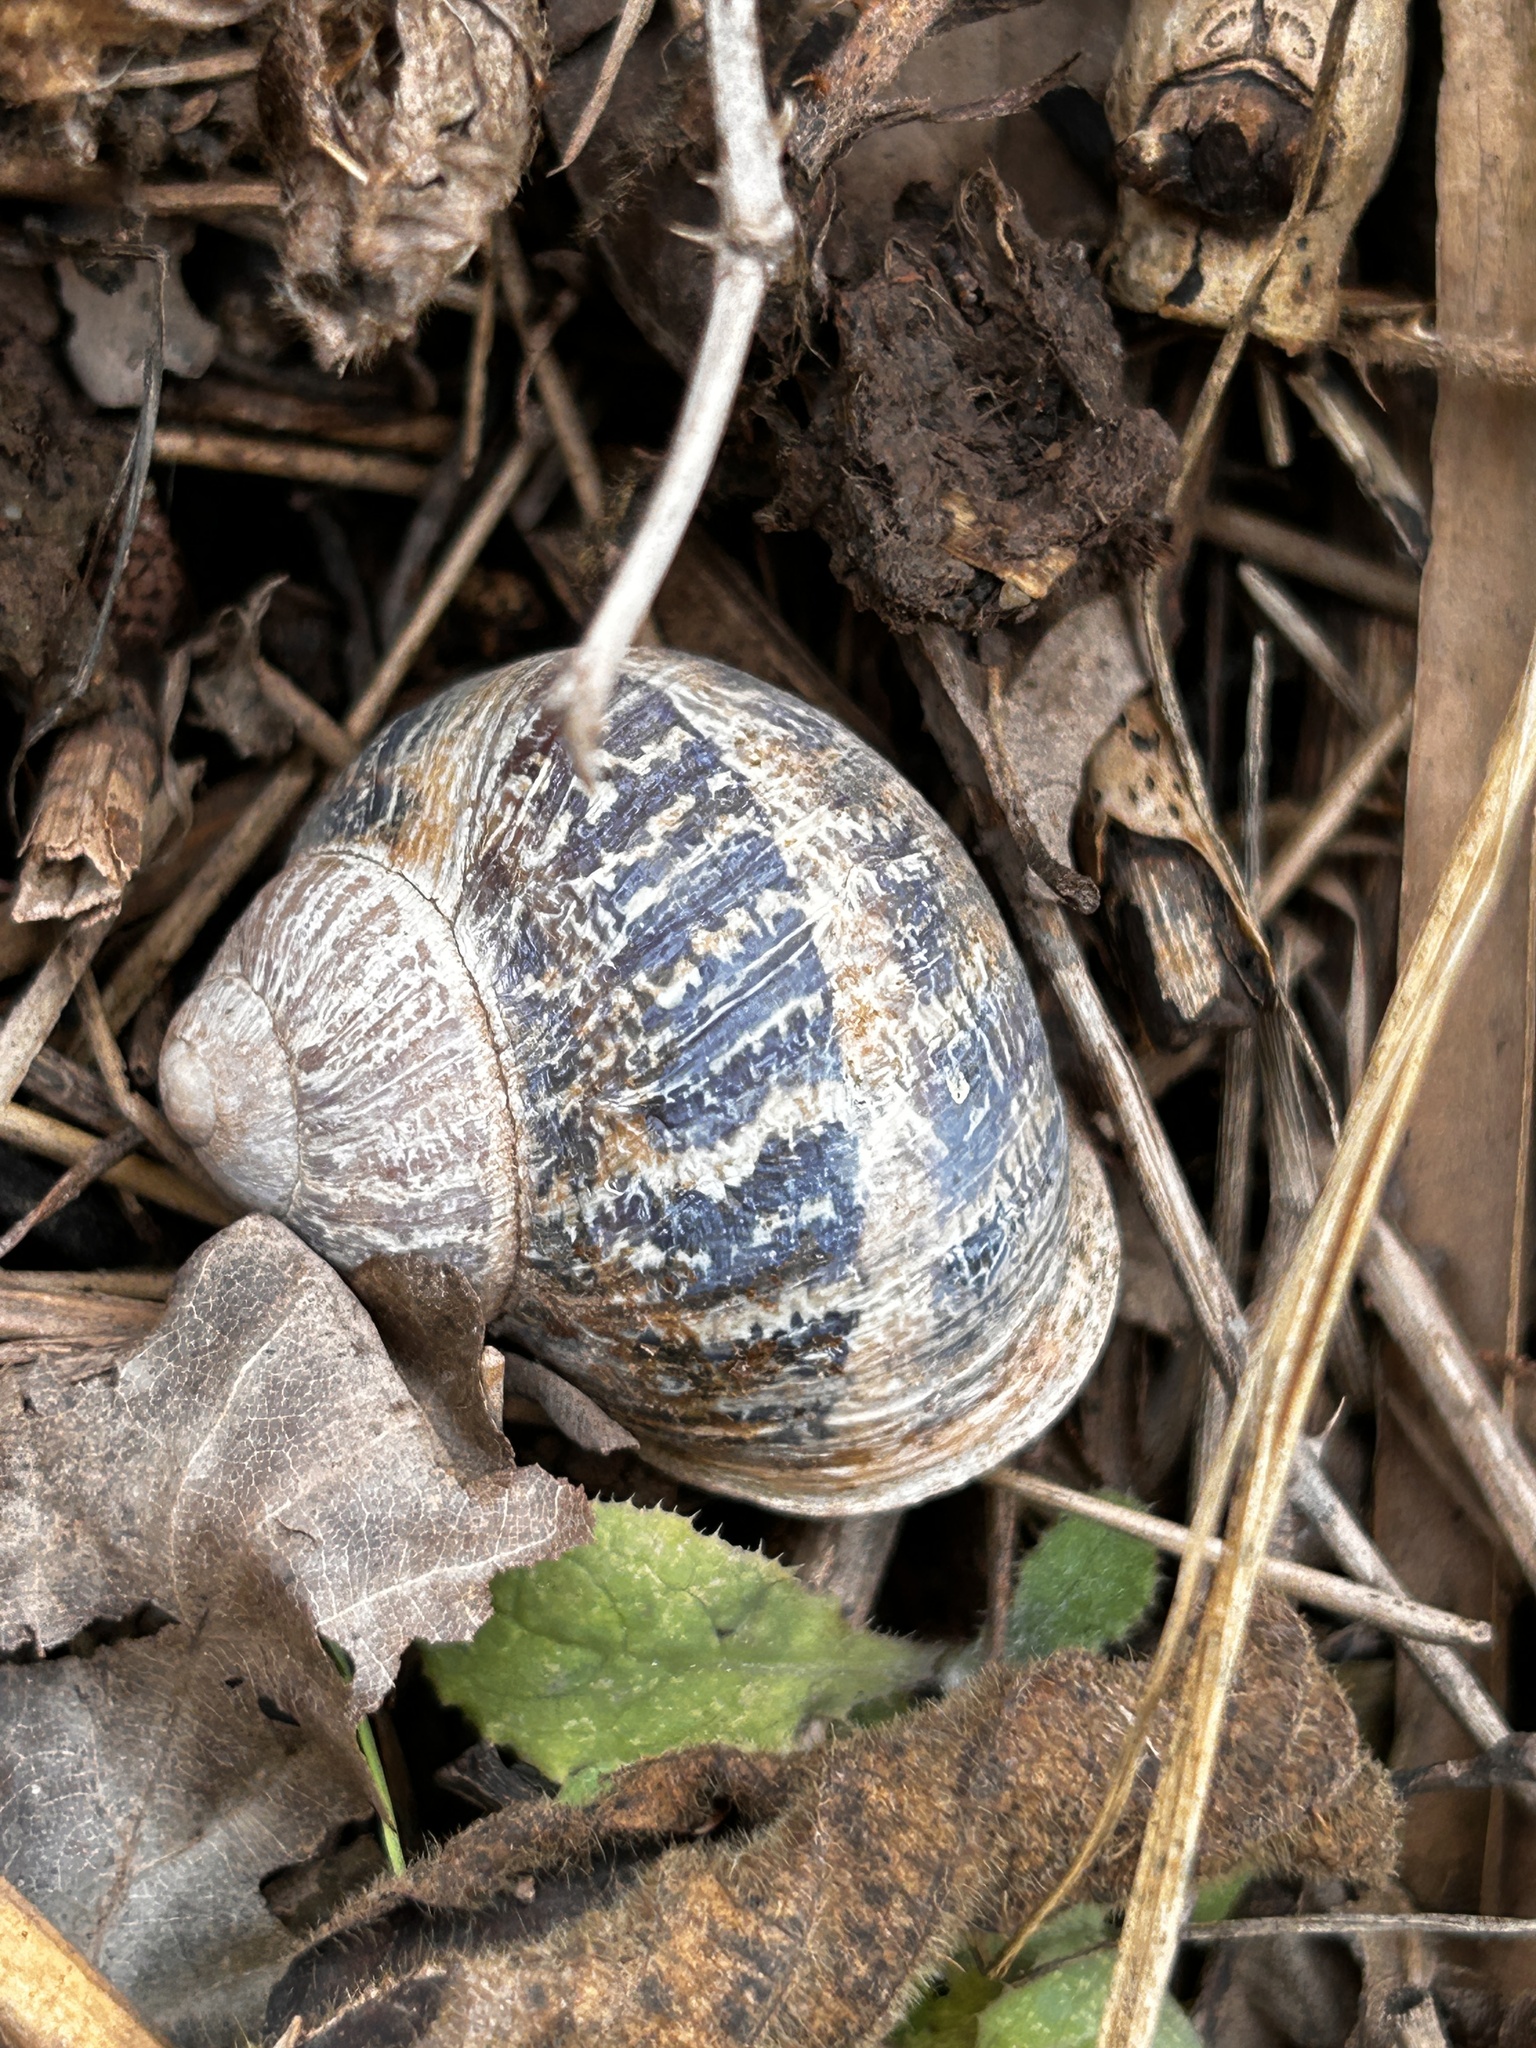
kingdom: Animalia
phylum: Mollusca
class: Gastropoda
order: Stylommatophora
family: Helicidae
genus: Cornu
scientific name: Cornu aspersum
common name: Brown garden snail
